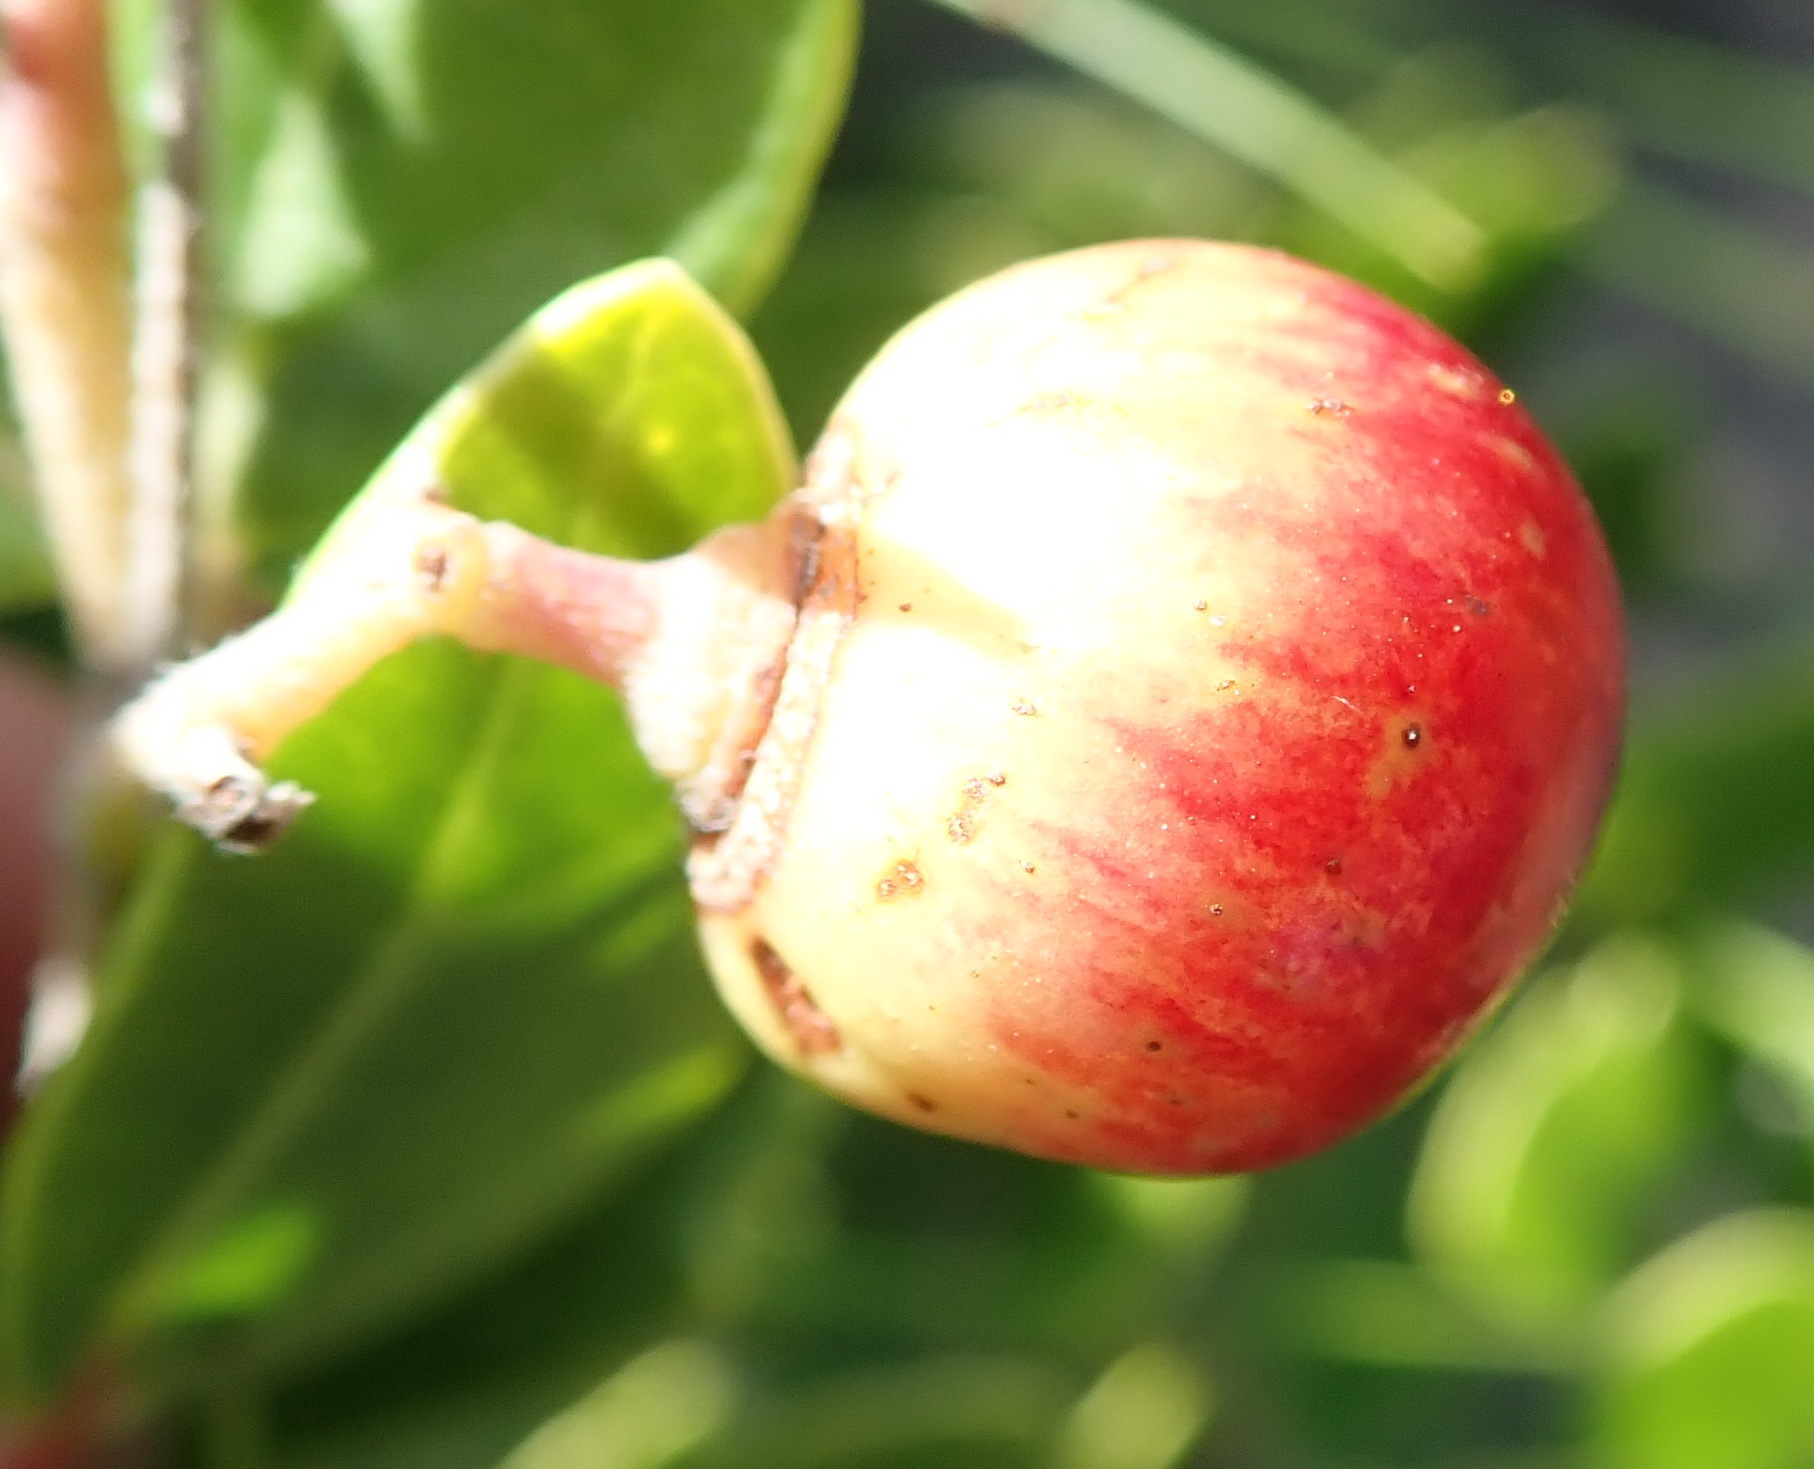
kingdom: Plantae
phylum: Tracheophyta
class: Magnoliopsida
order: Vitales
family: Vitaceae
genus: Rhoicissus
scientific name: Rhoicissus tridentata
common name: Common forest grape
